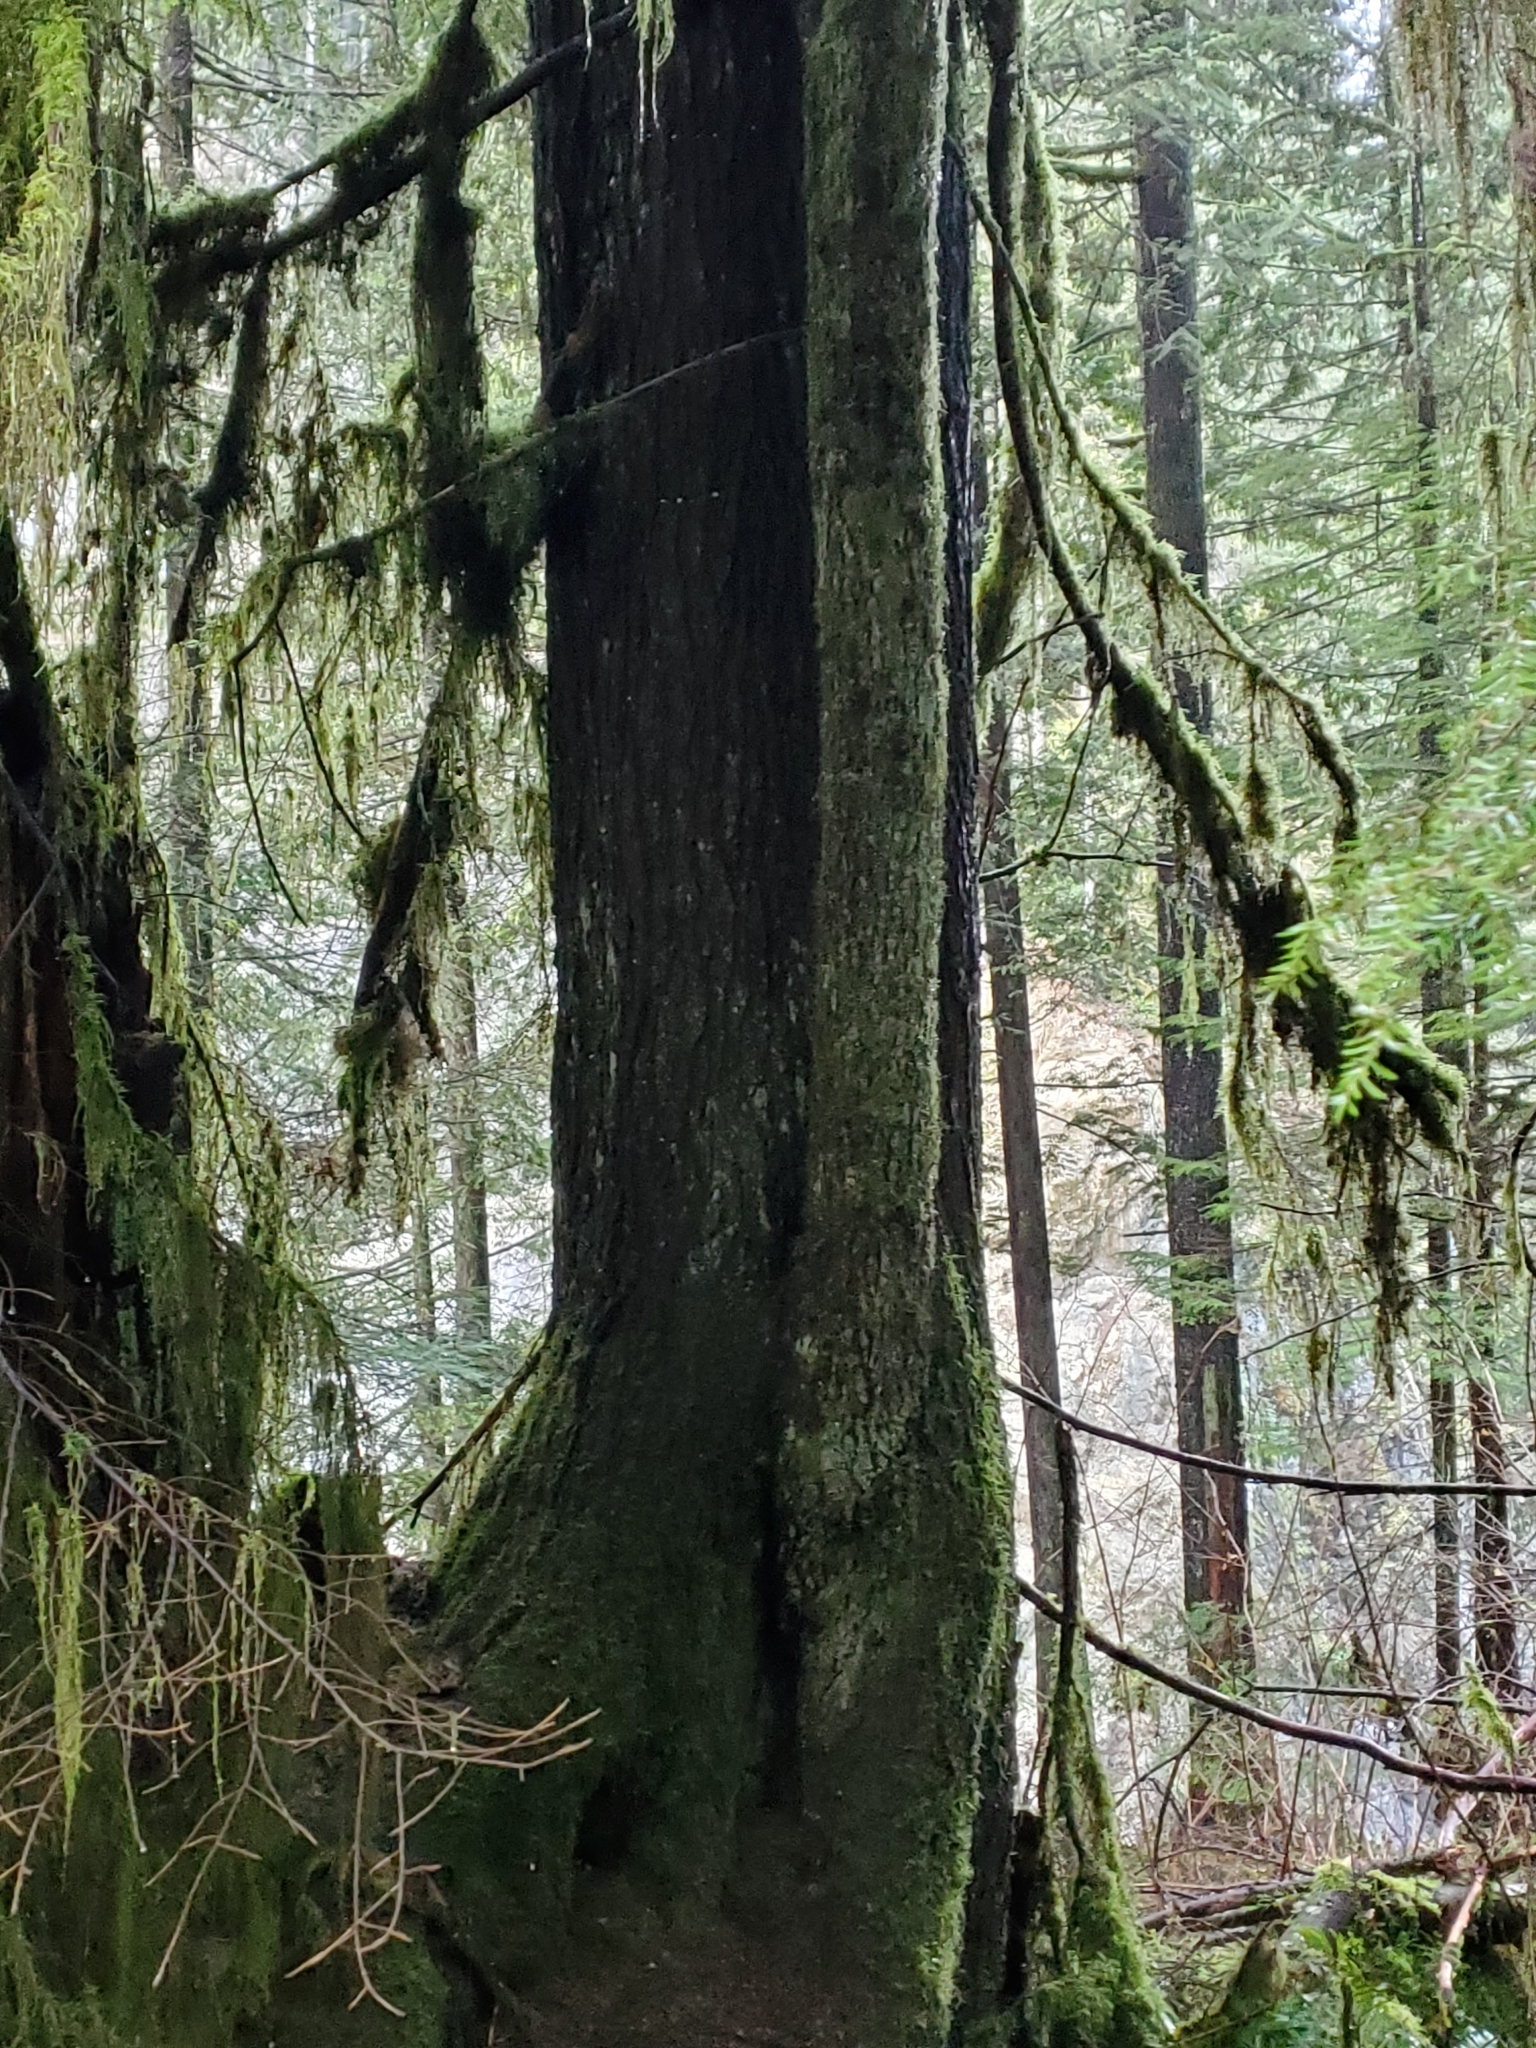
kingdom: Plantae
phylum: Tracheophyta
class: Pinopsida
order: Pinales
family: Pinaceae
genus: Tsuga
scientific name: Tsuga heterophylla
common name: Western hemlock
